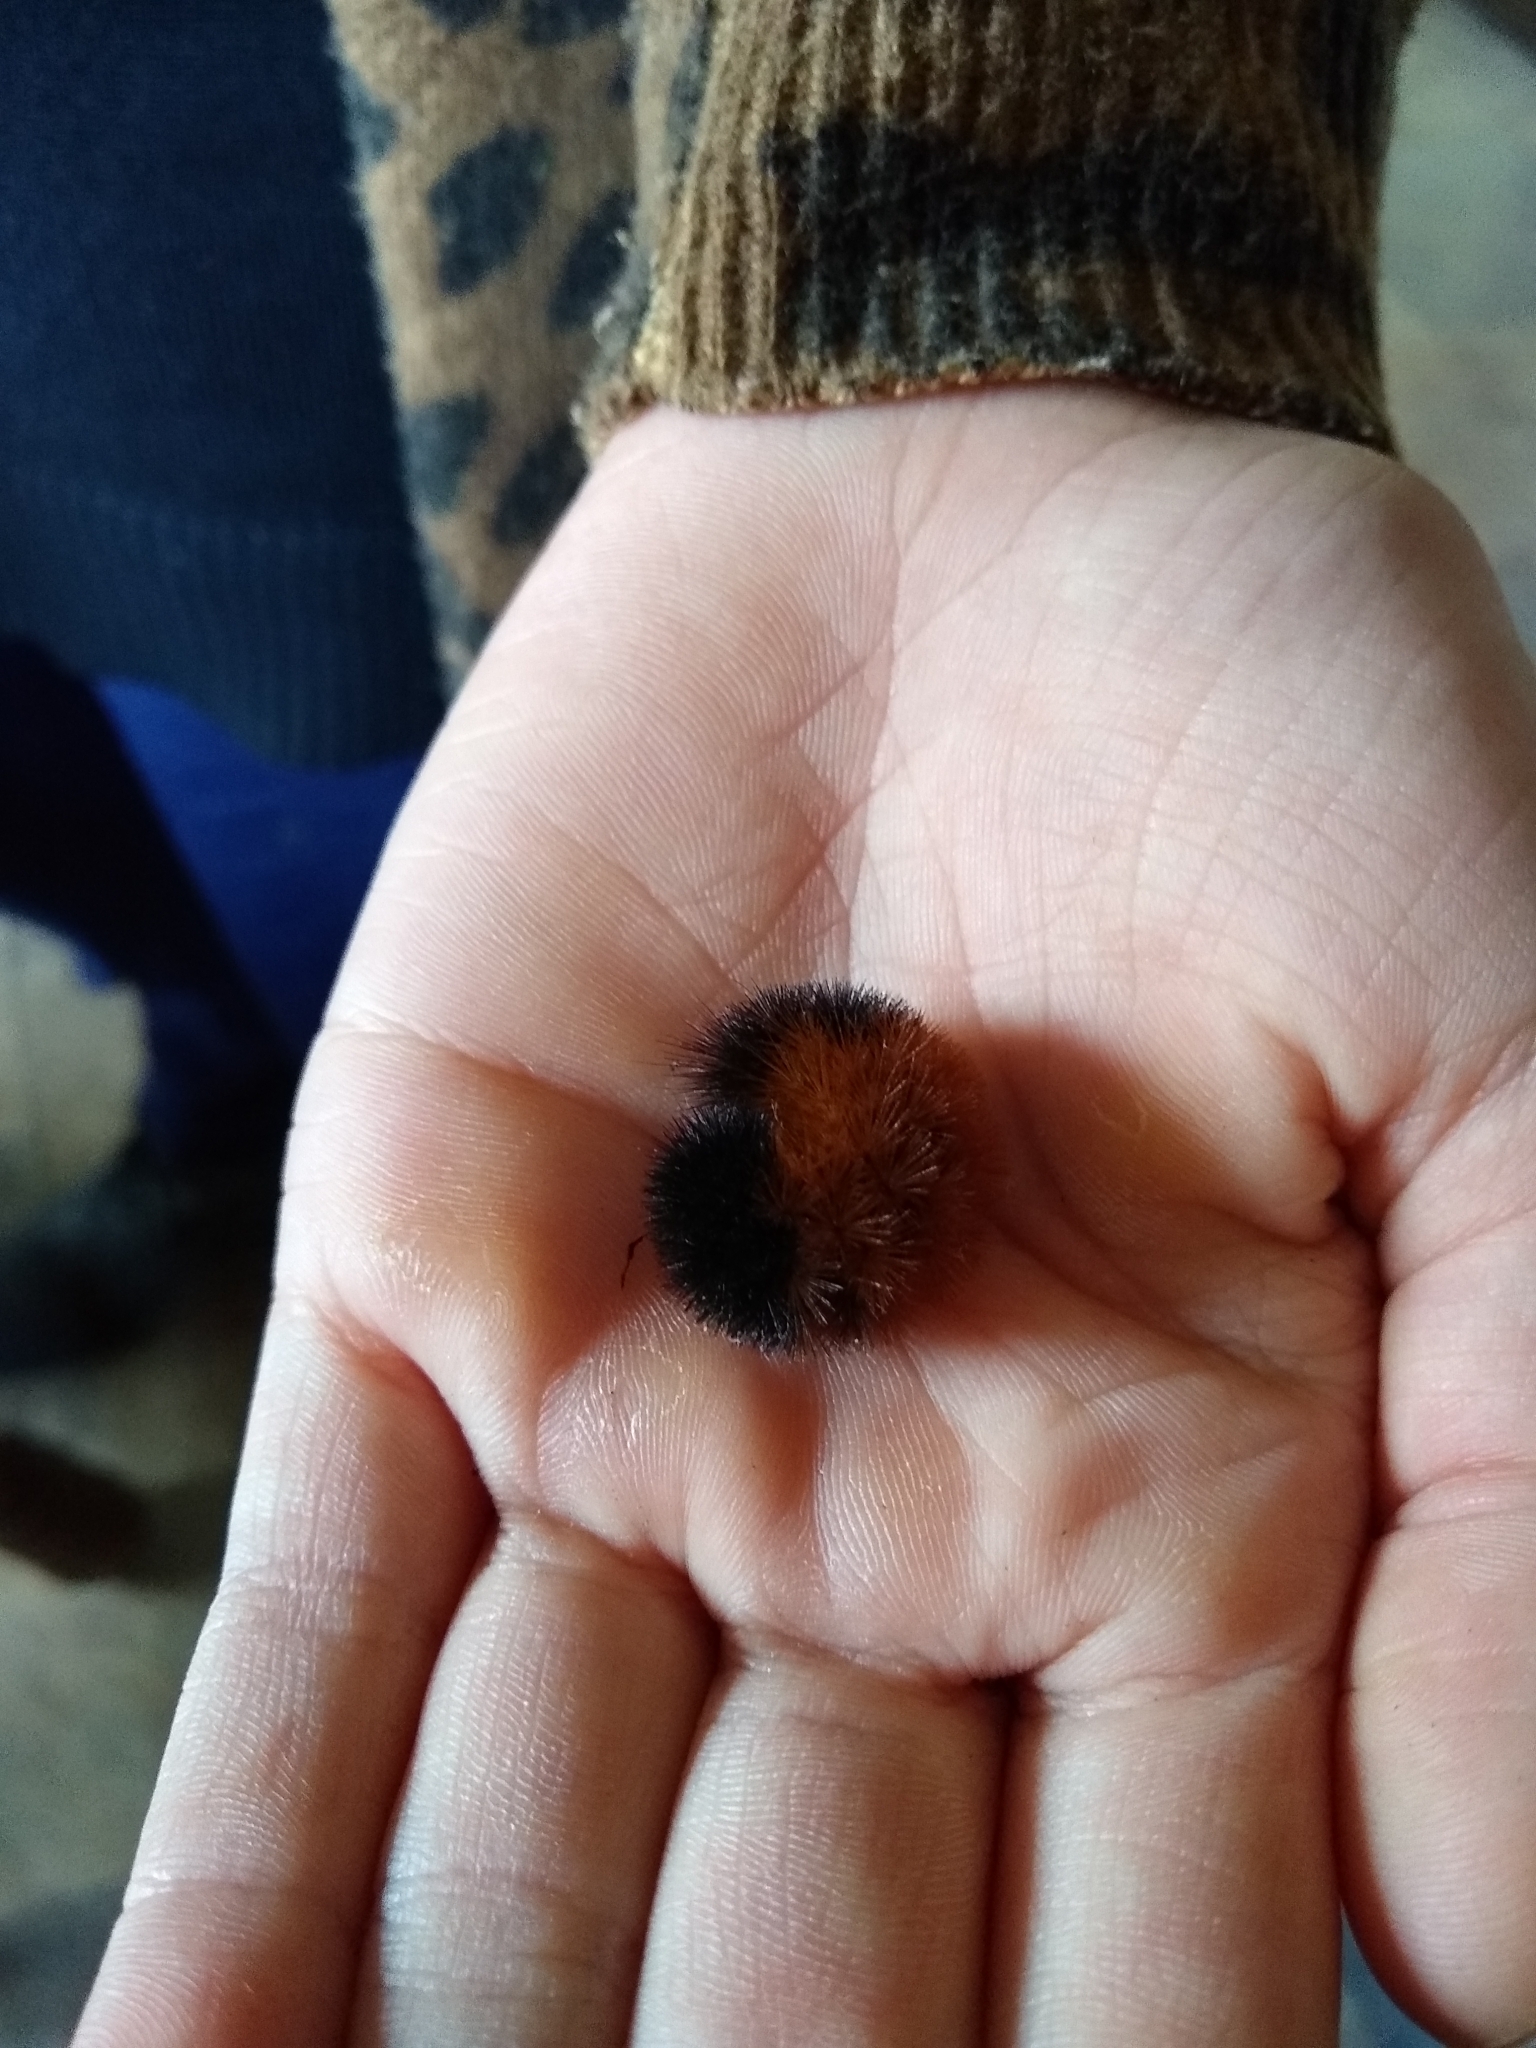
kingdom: Animalia
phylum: Arthropoda
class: Insecta
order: Lepidoptera
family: Erebidae
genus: Pyrrharctia
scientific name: Pyrrharctia isabella
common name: Isabella tiger moth
